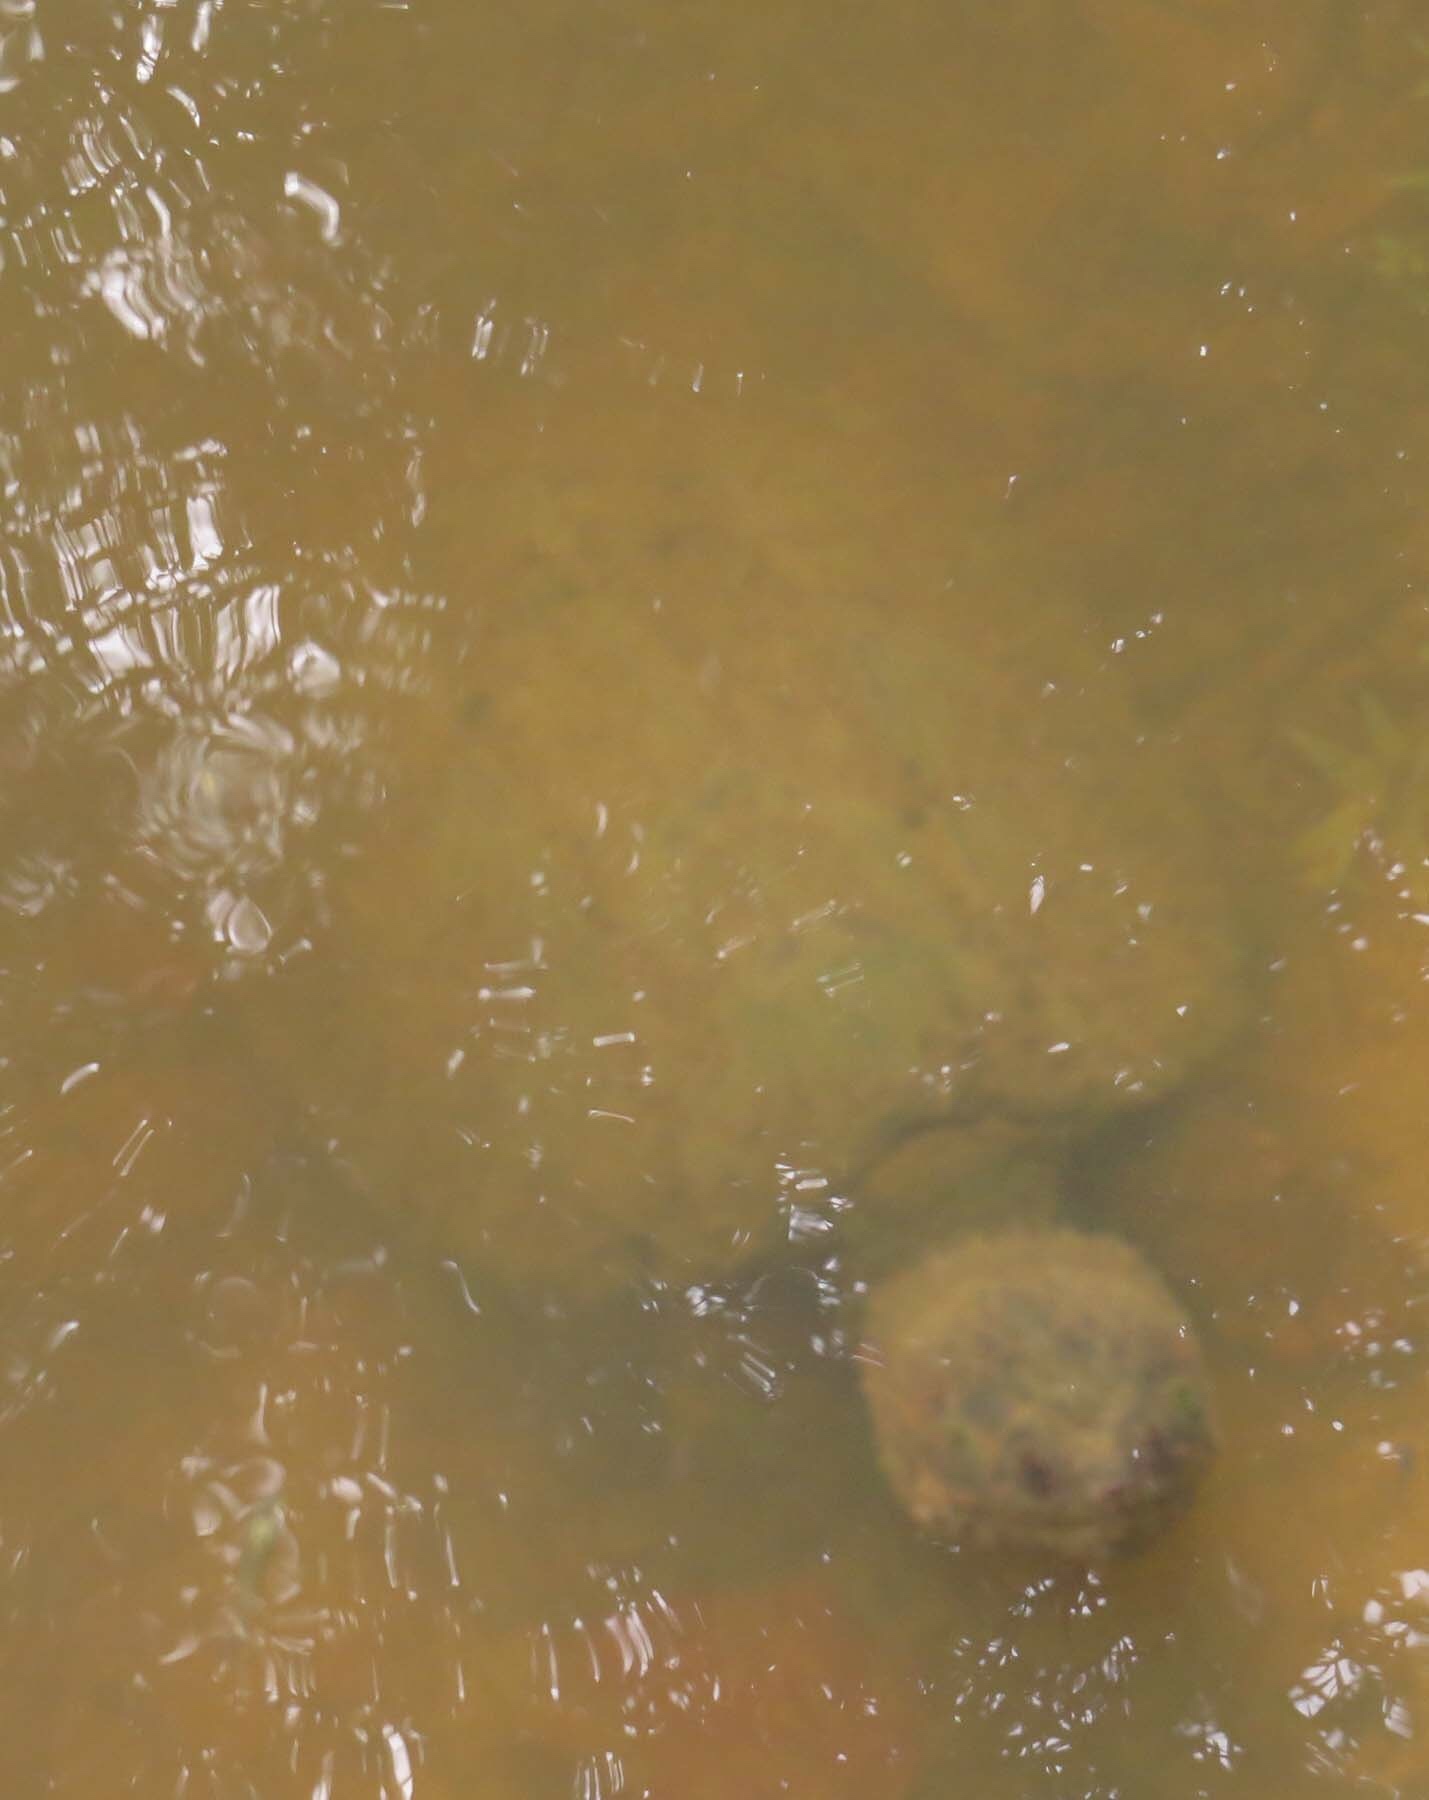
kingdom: Animalia
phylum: Chordata
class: Testudines
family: Chelydridae
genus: Chelydra
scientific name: Chelydra serpentina
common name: Common snapping turtle
